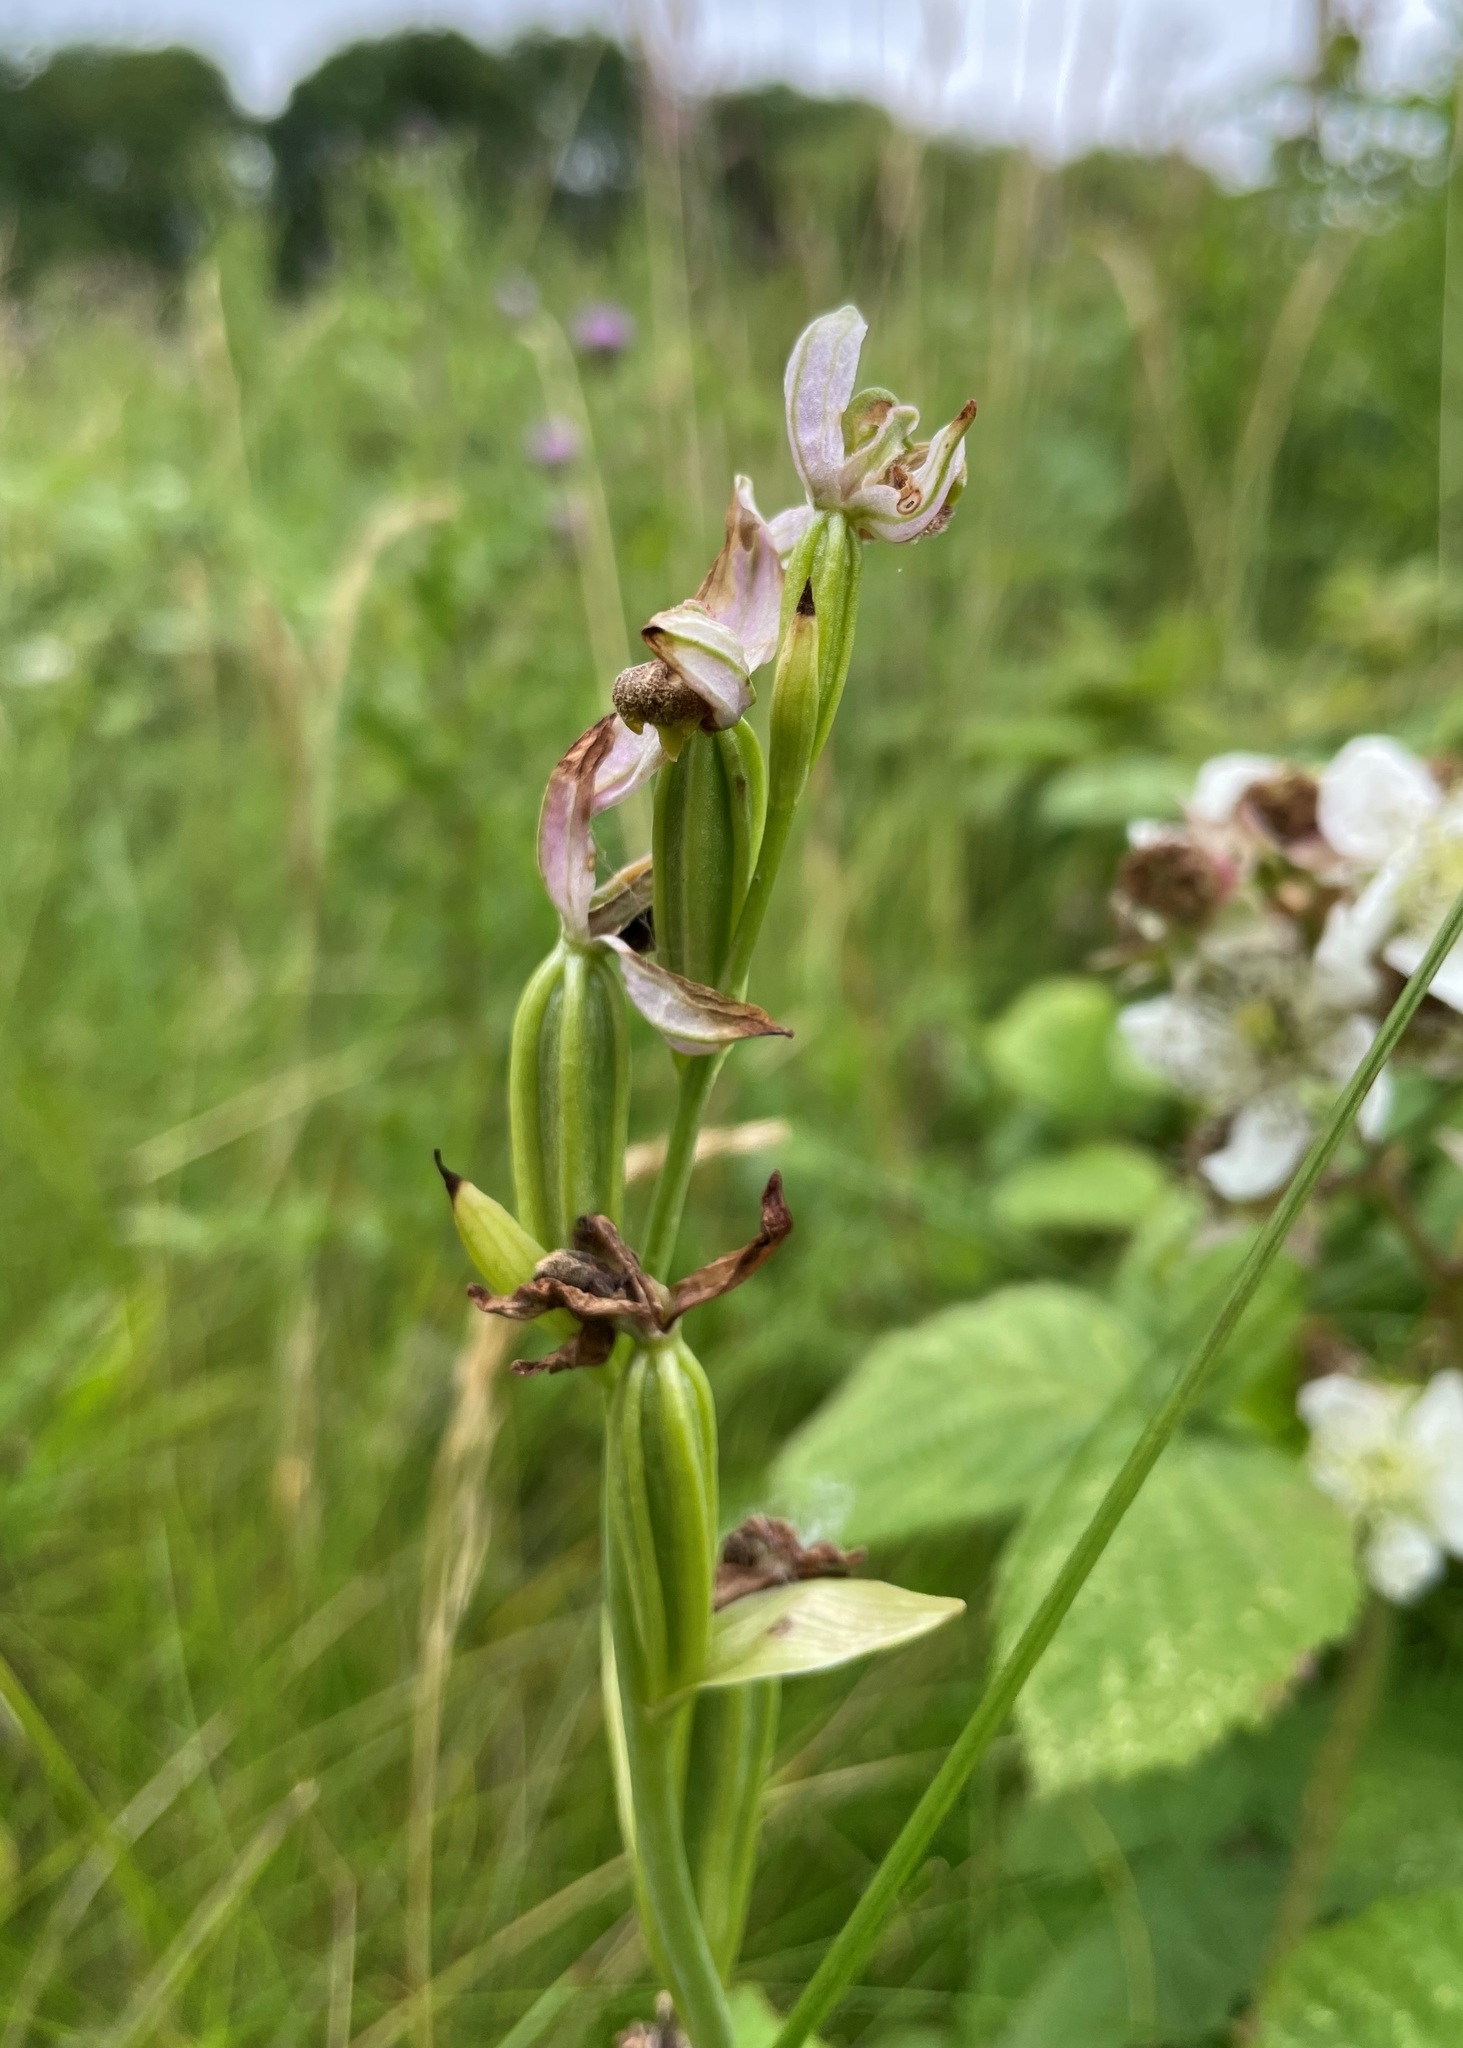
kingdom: Plantae
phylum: Tracheophyta
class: Liliopsida
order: Asparagales
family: Orchidaceae
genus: Ophrys
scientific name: Ophrys apifera
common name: Bee orchid
